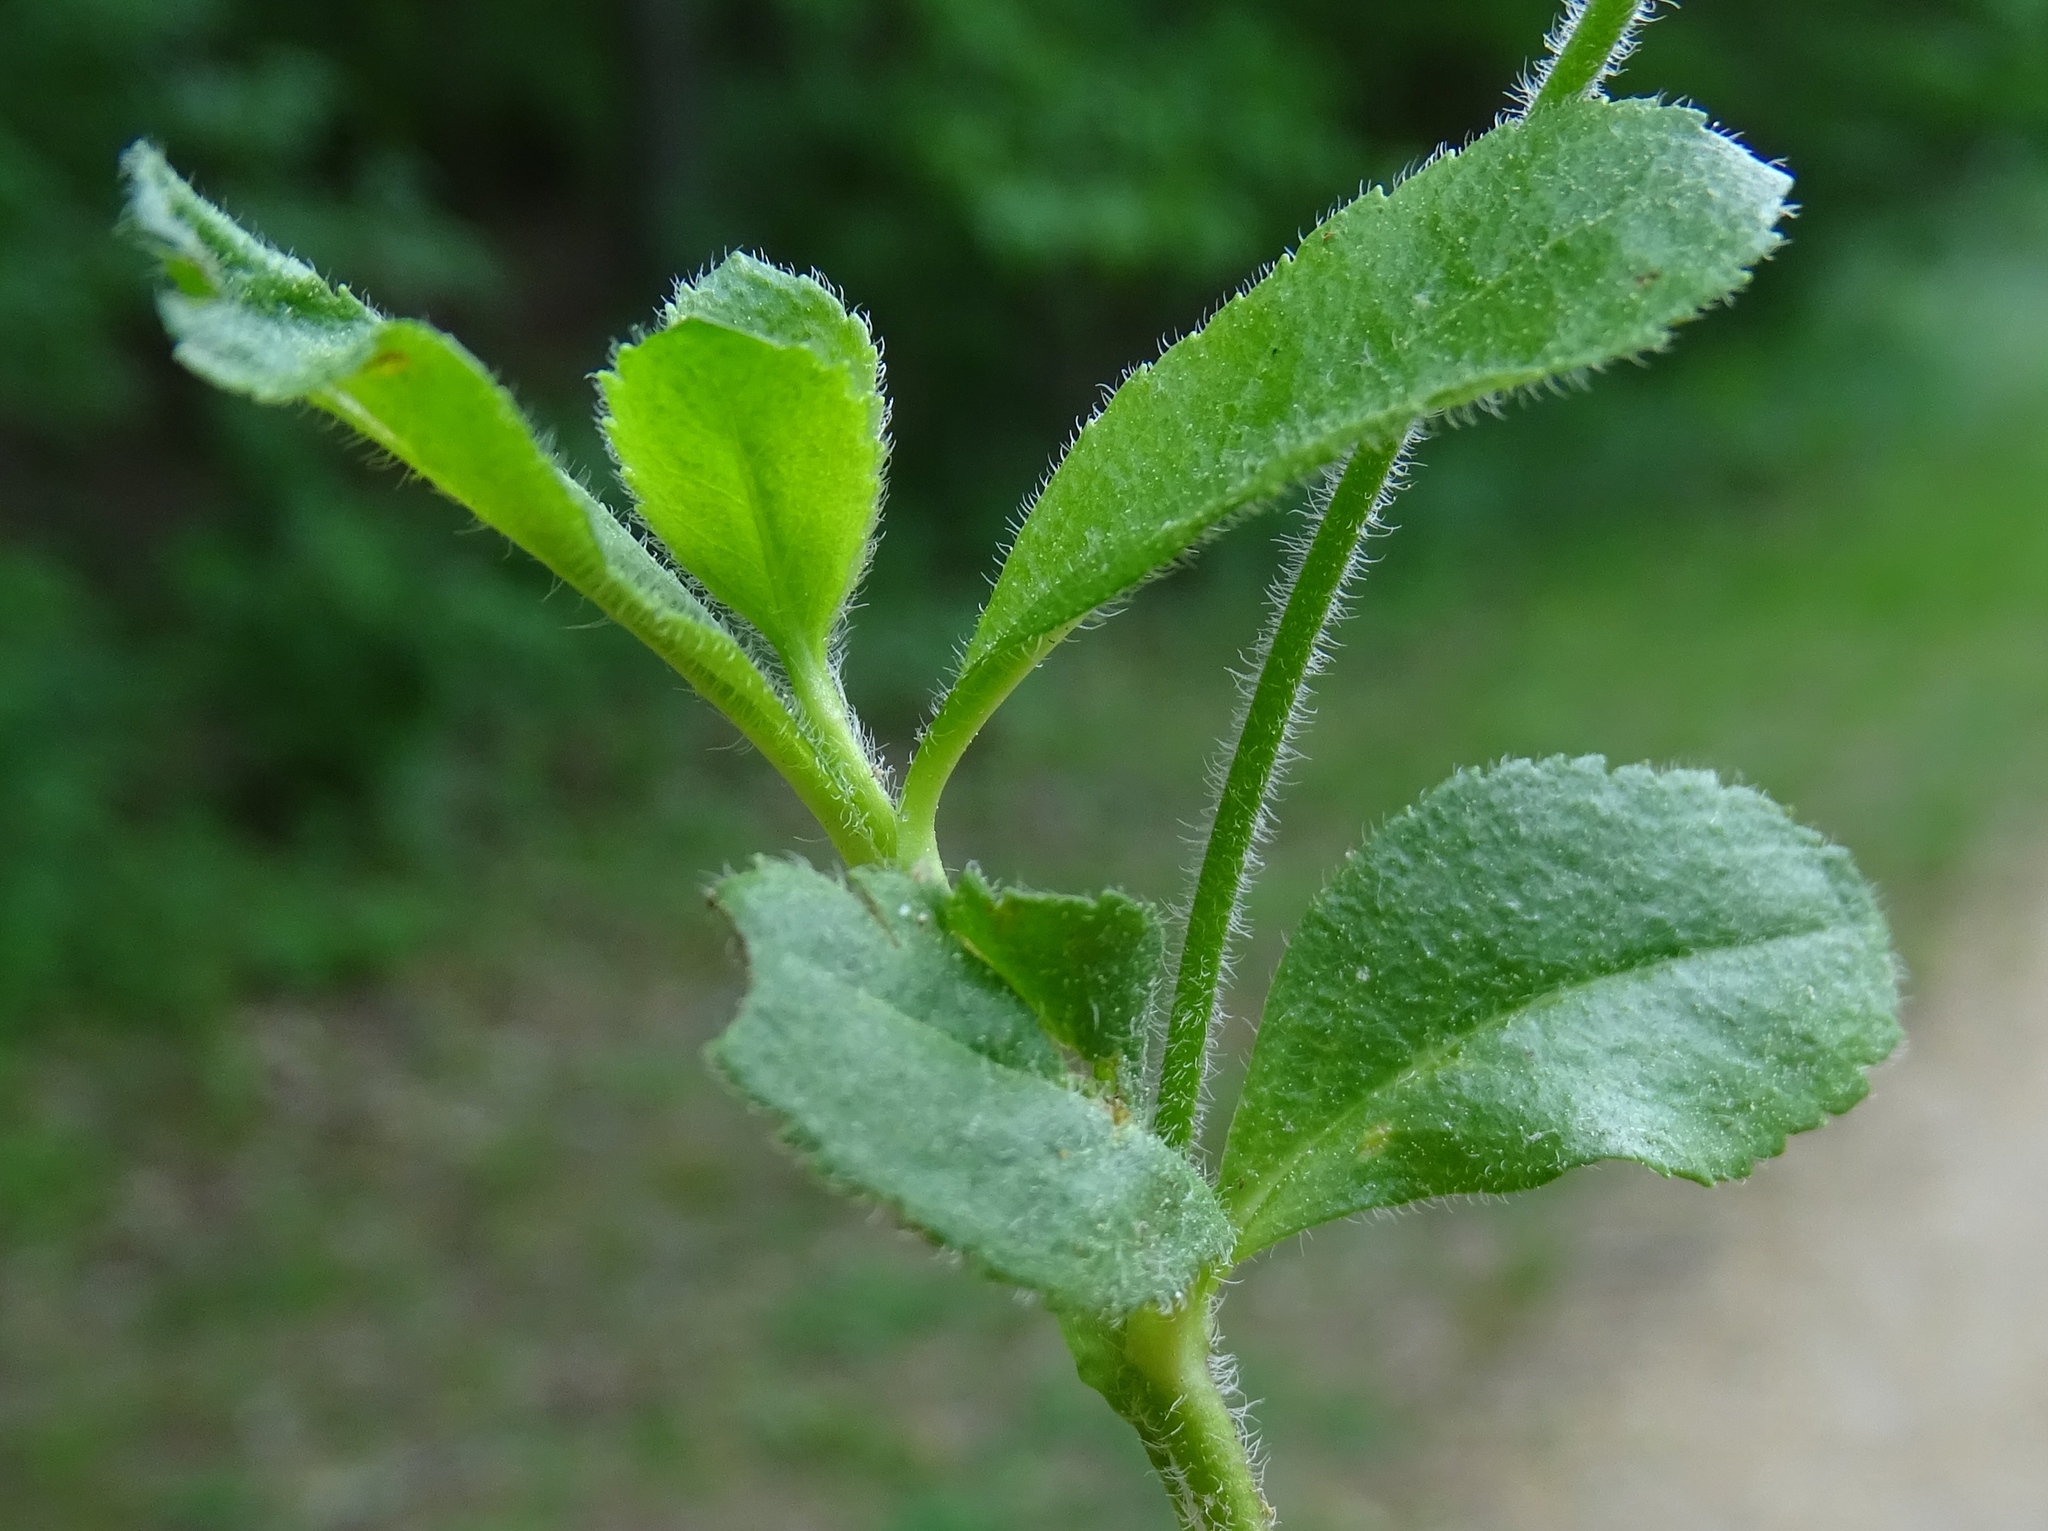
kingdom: Plantae
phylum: Tracheophyta
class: Magnoliopsida
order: Lamiales
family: Plantaginaceae
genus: Veronica
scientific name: Veronica officinalis
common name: Common speedwell
